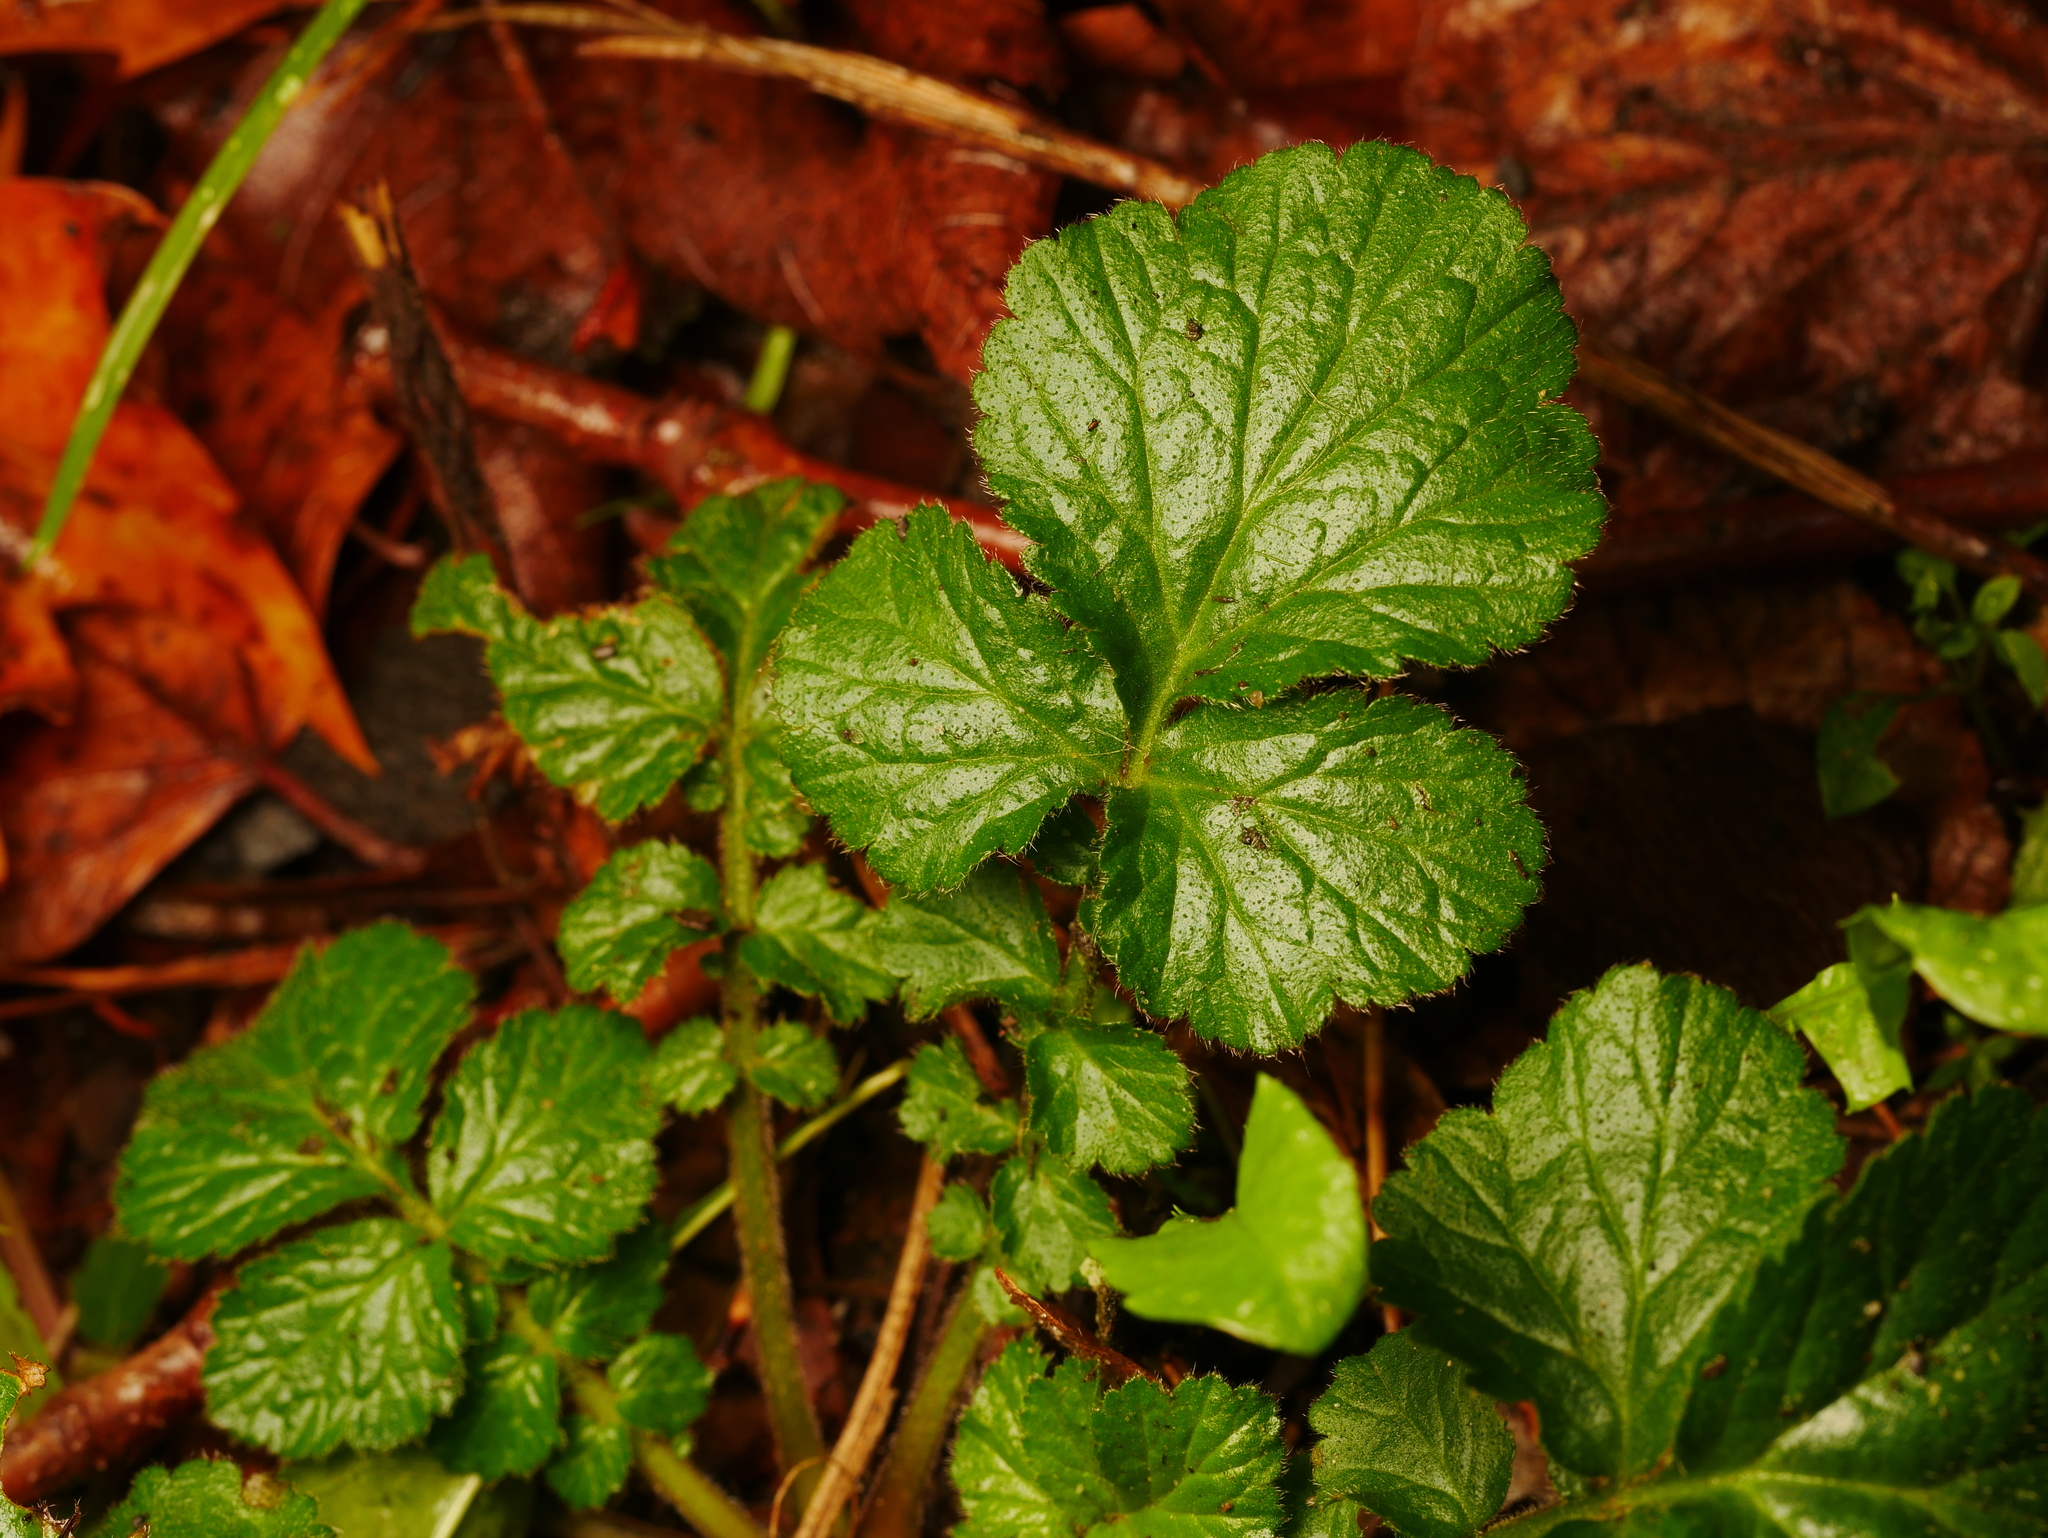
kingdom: Plantae
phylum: Tracheophyta
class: Magnoliopsida
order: Rosales
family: Rosaceae
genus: Geum
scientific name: Geum urbanum
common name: Wood avens
